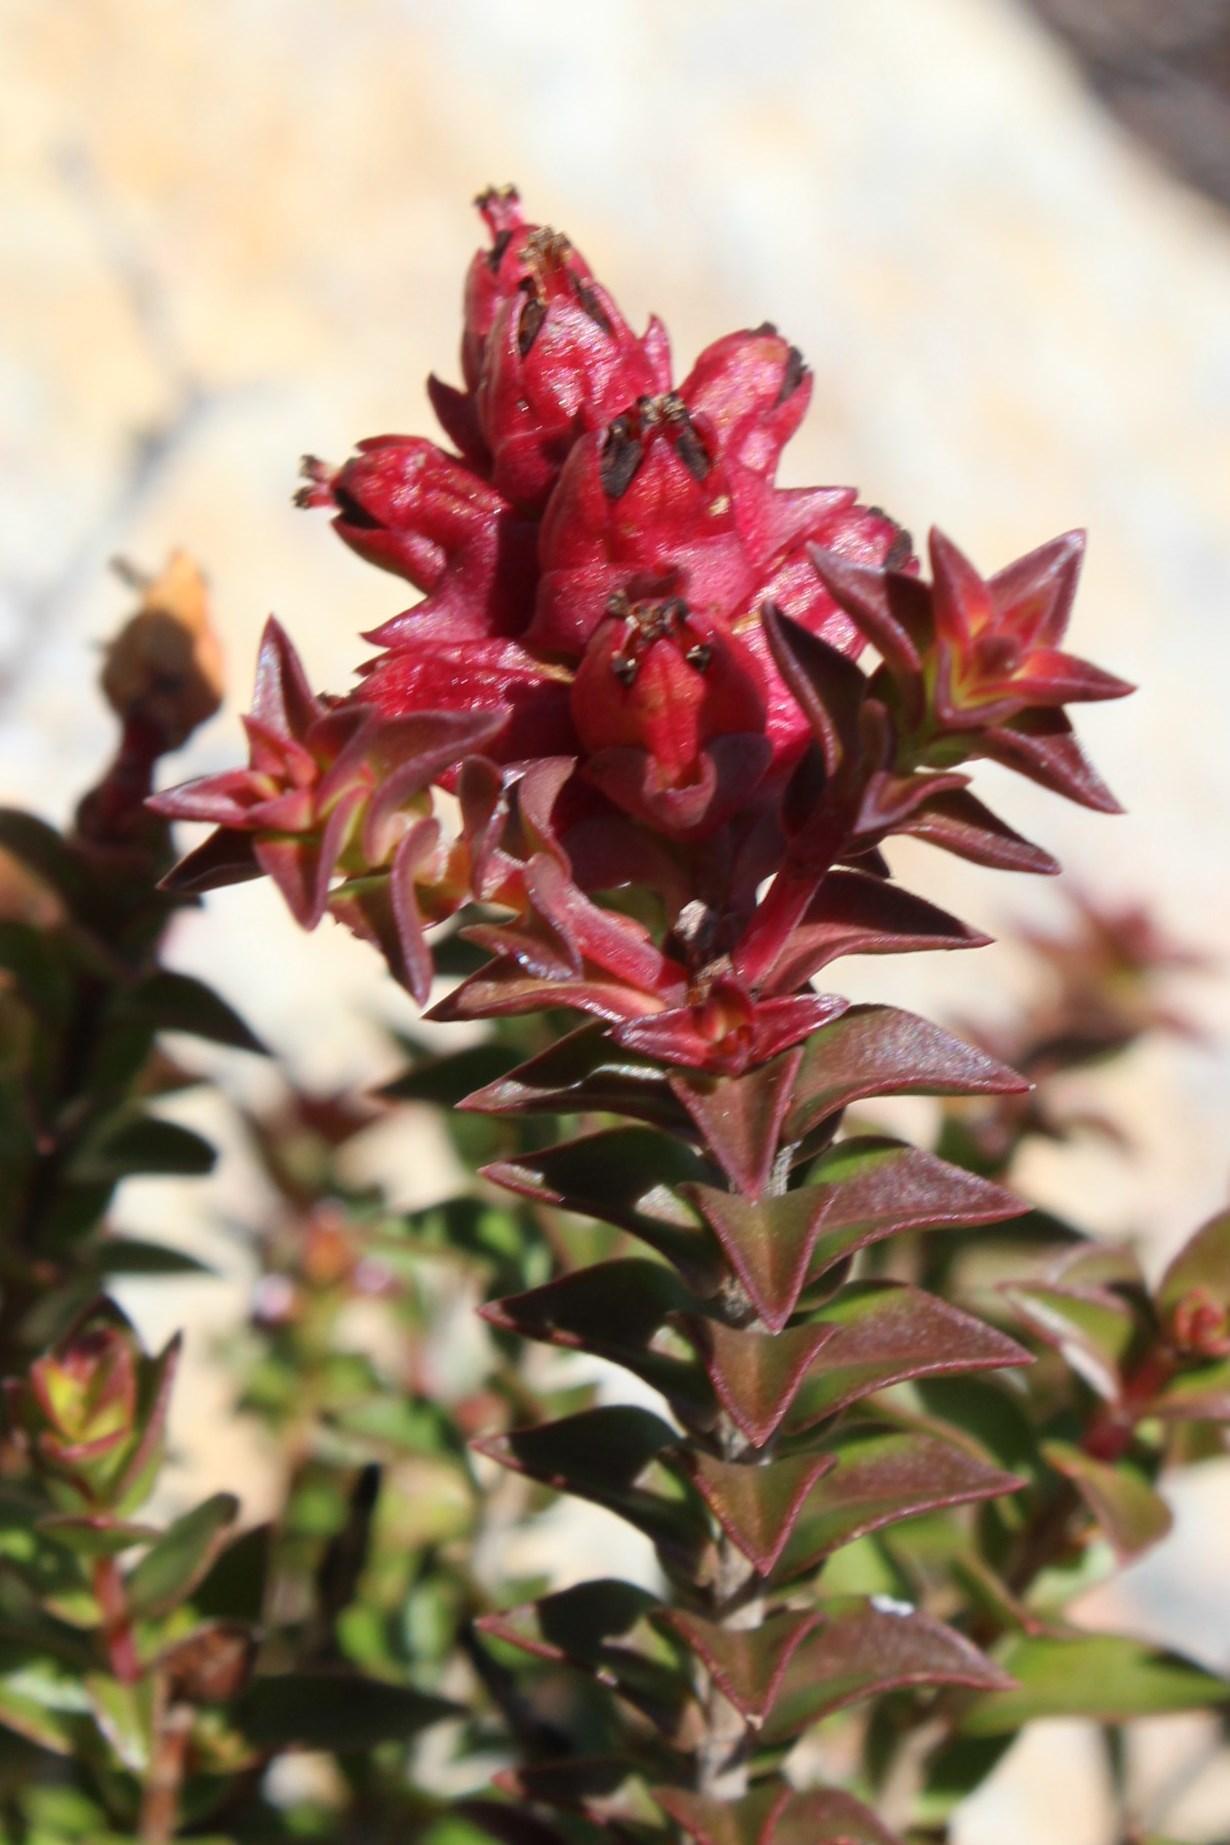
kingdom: Plantae
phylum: Tracheophyta
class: Magnoliopsida
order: Myrtales
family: Penaeaceae
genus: Penaea
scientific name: Penaea mucronata
